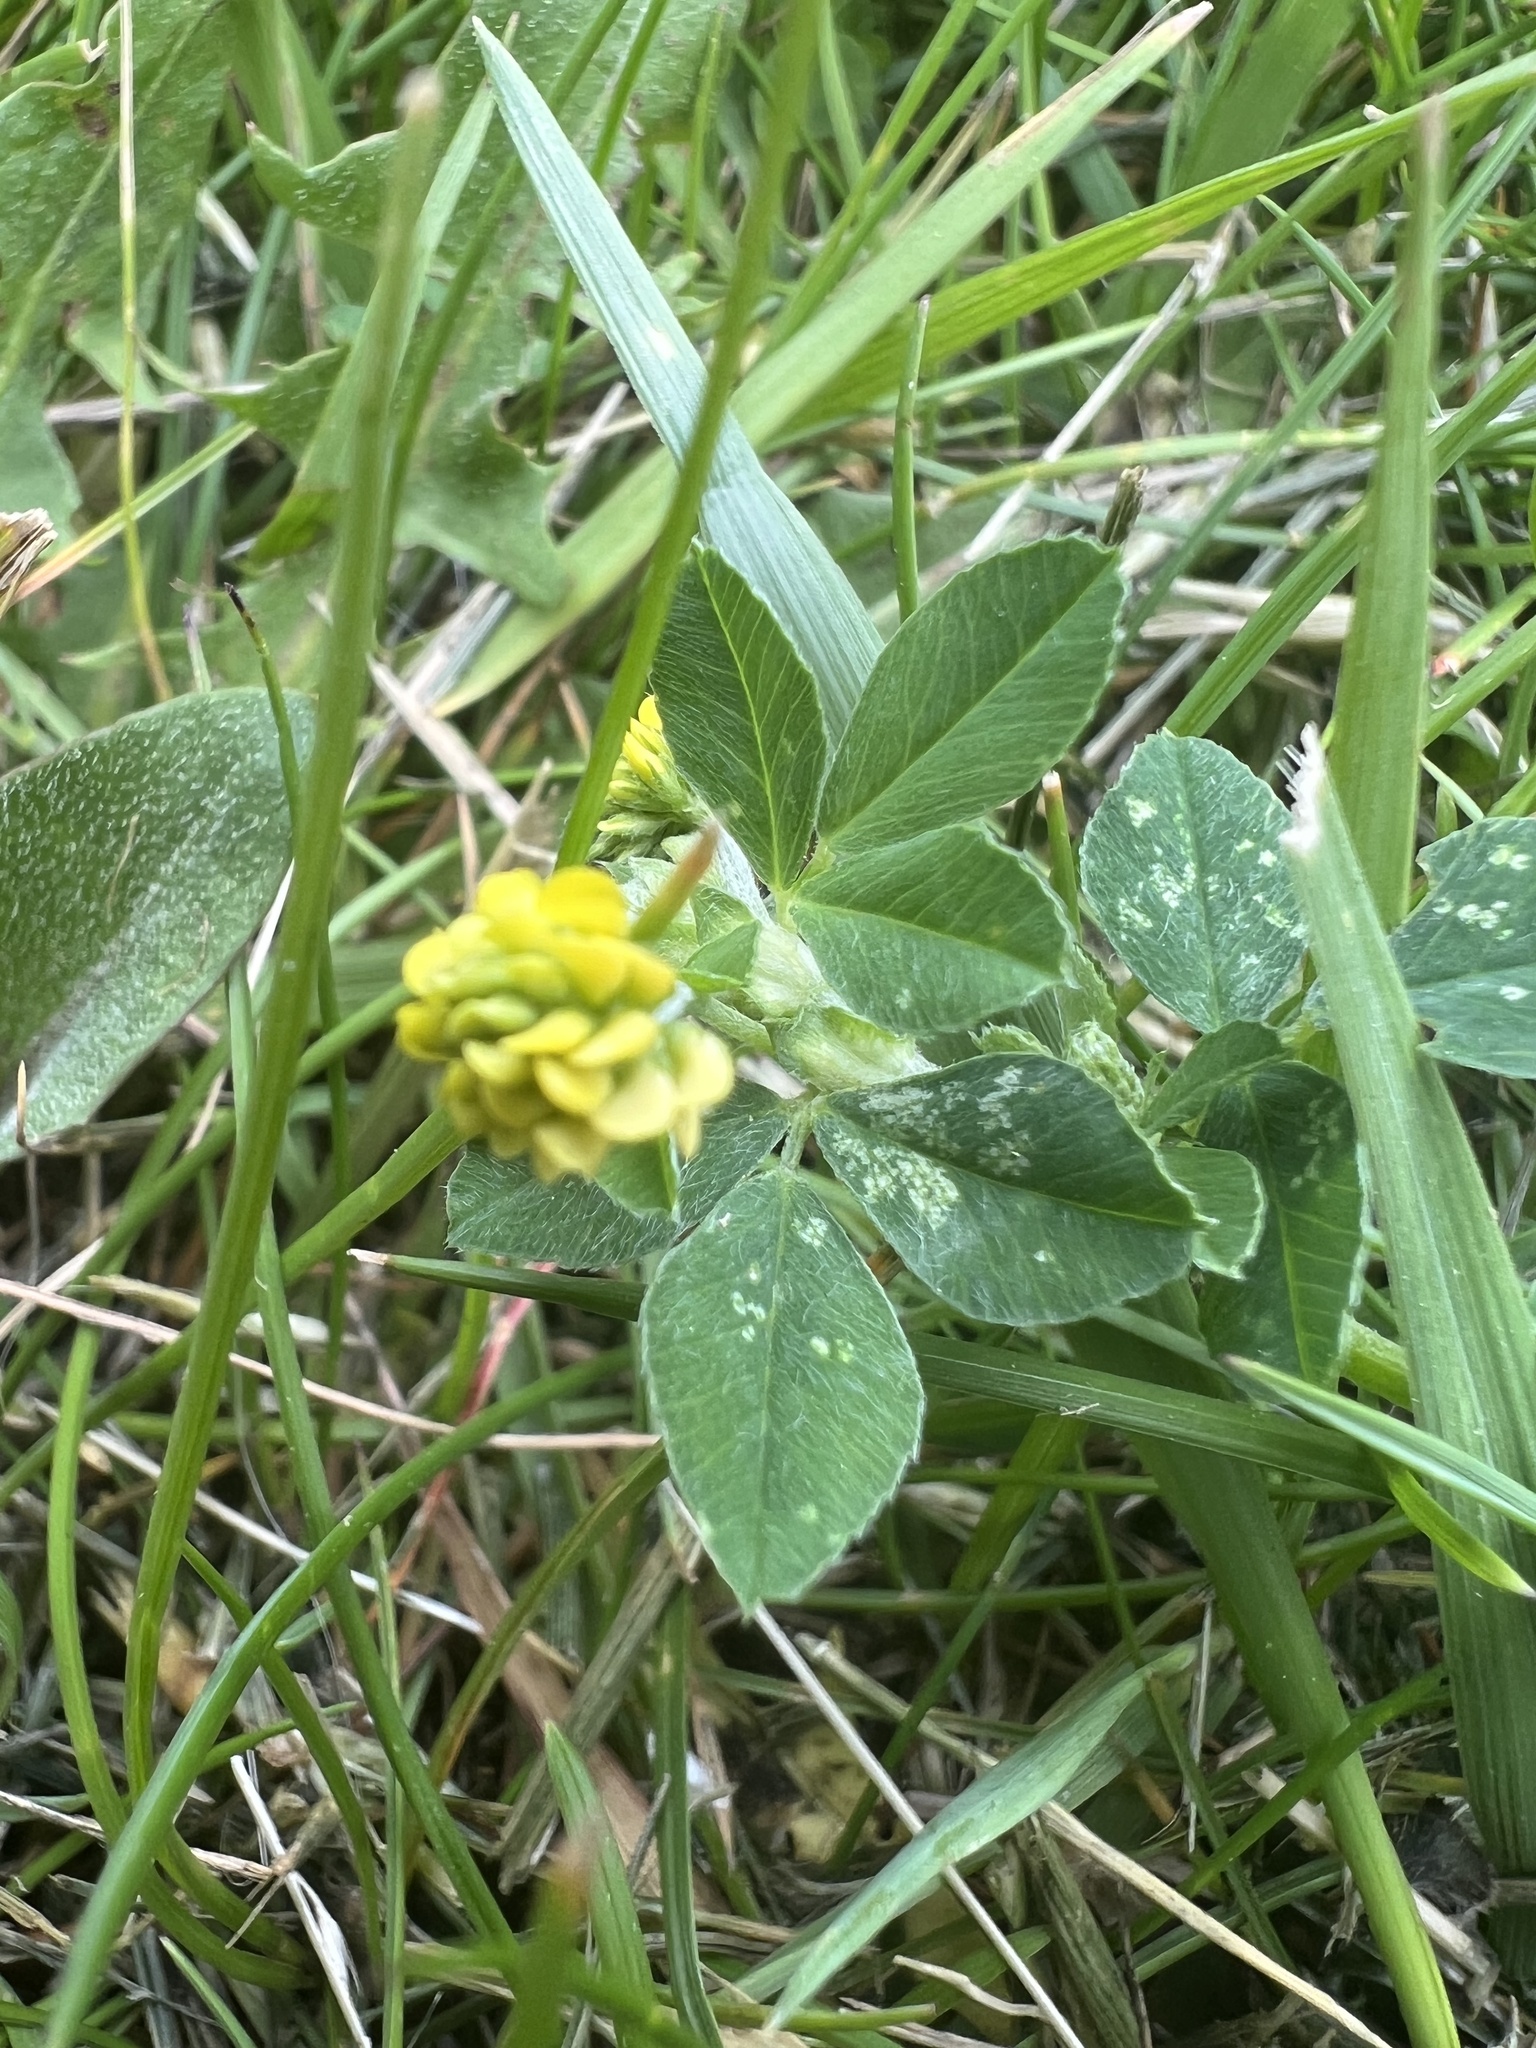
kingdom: Plantae
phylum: Tracheophyta
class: Magnoliopsida
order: Fabales
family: Fabaceae
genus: Medicago
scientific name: Medicago lupulina
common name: Black medick
